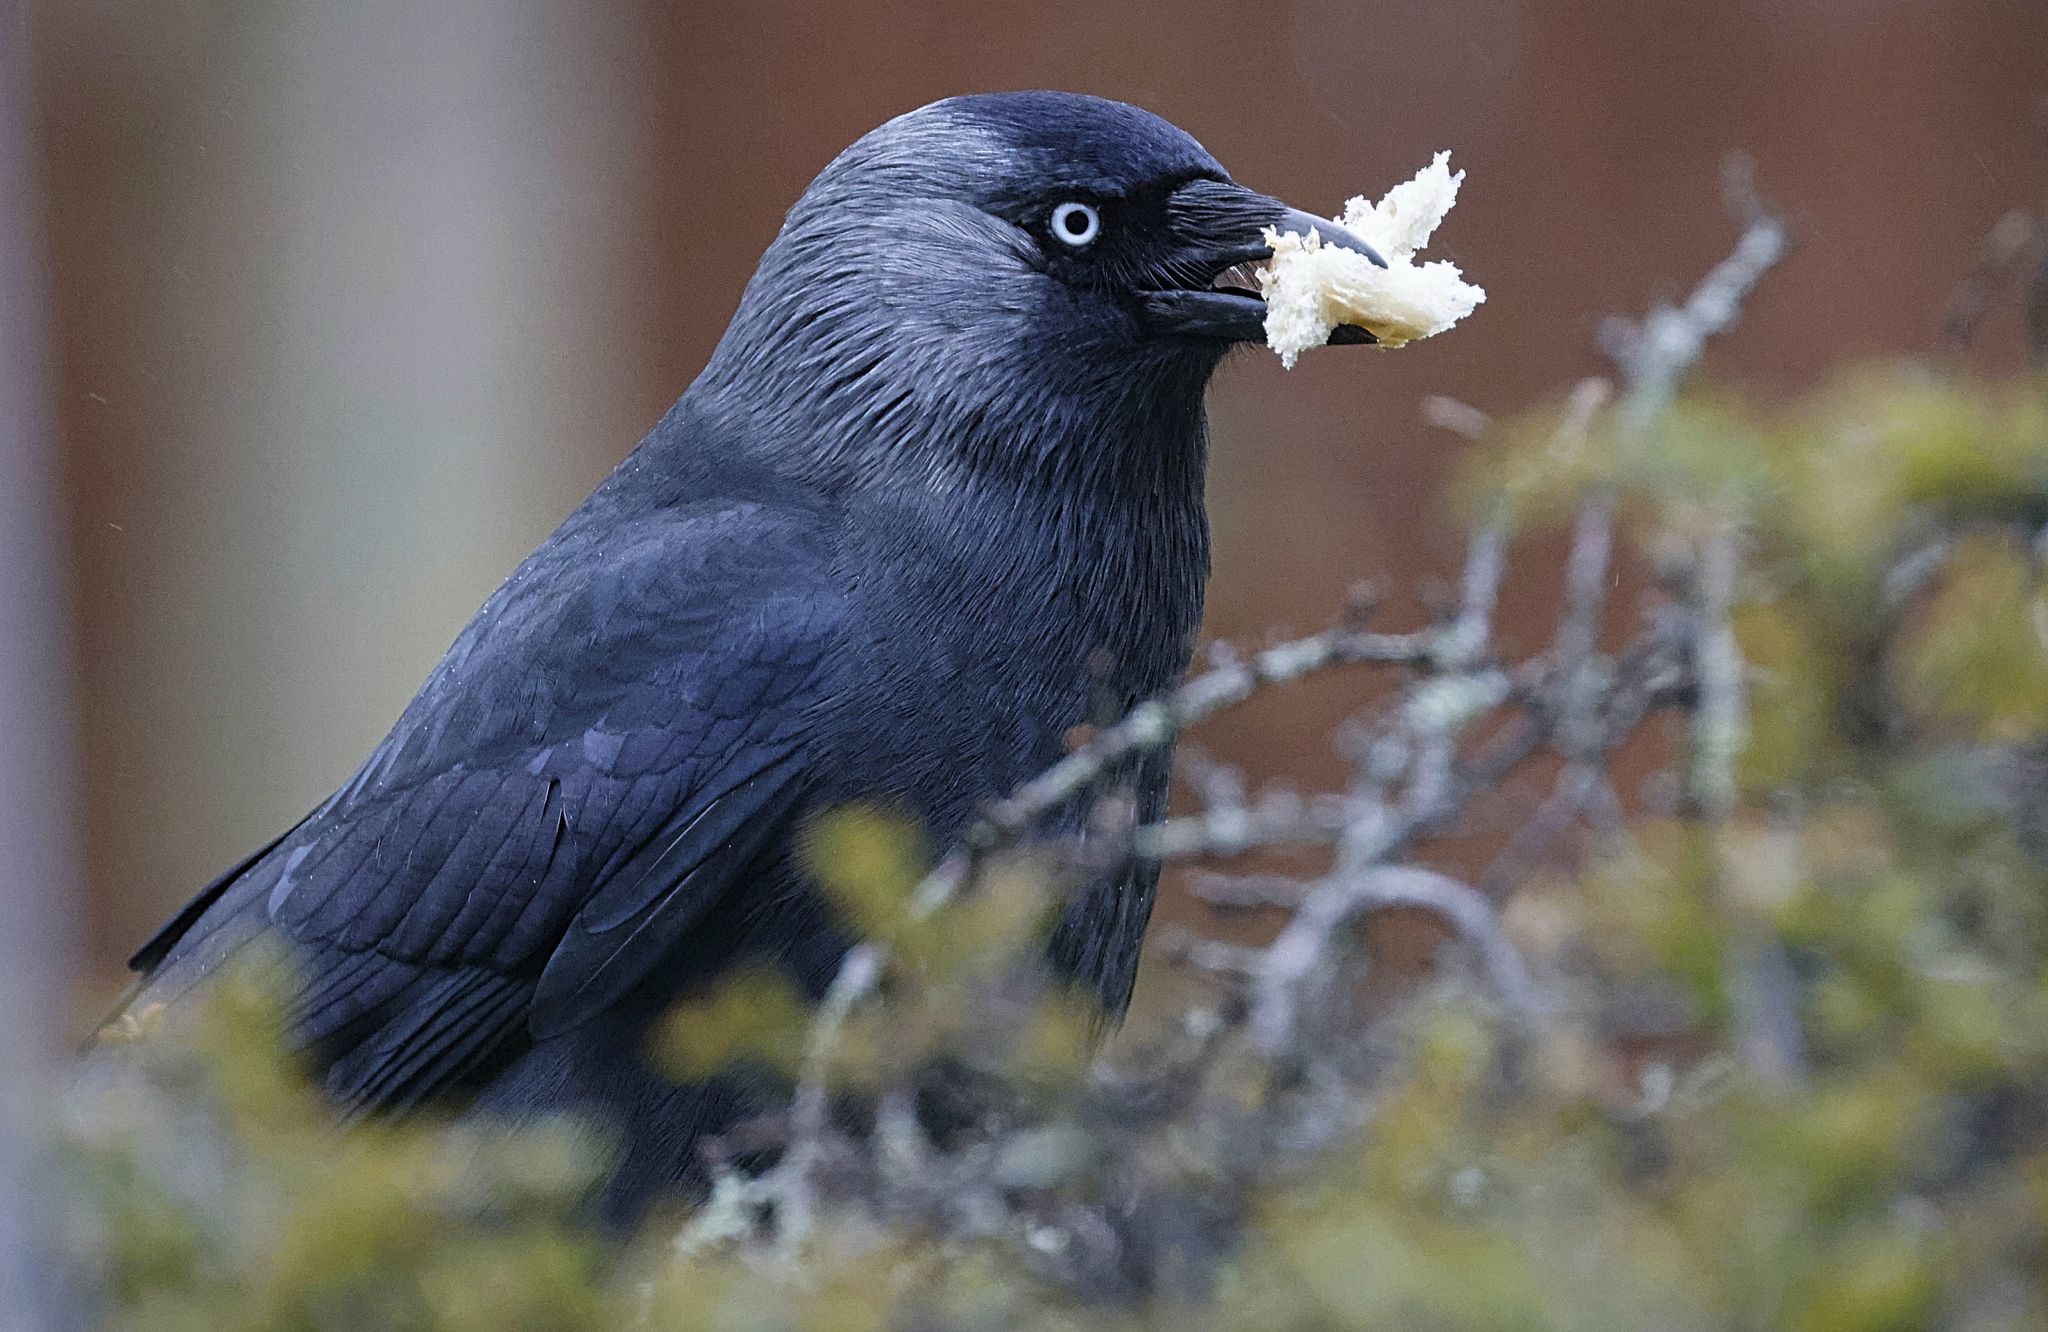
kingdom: Animalia
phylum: Chordata
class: Aves
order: Passeriformes
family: Corvidae
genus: Coloeus
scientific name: Coloeus monedula
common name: Western jackdaw
